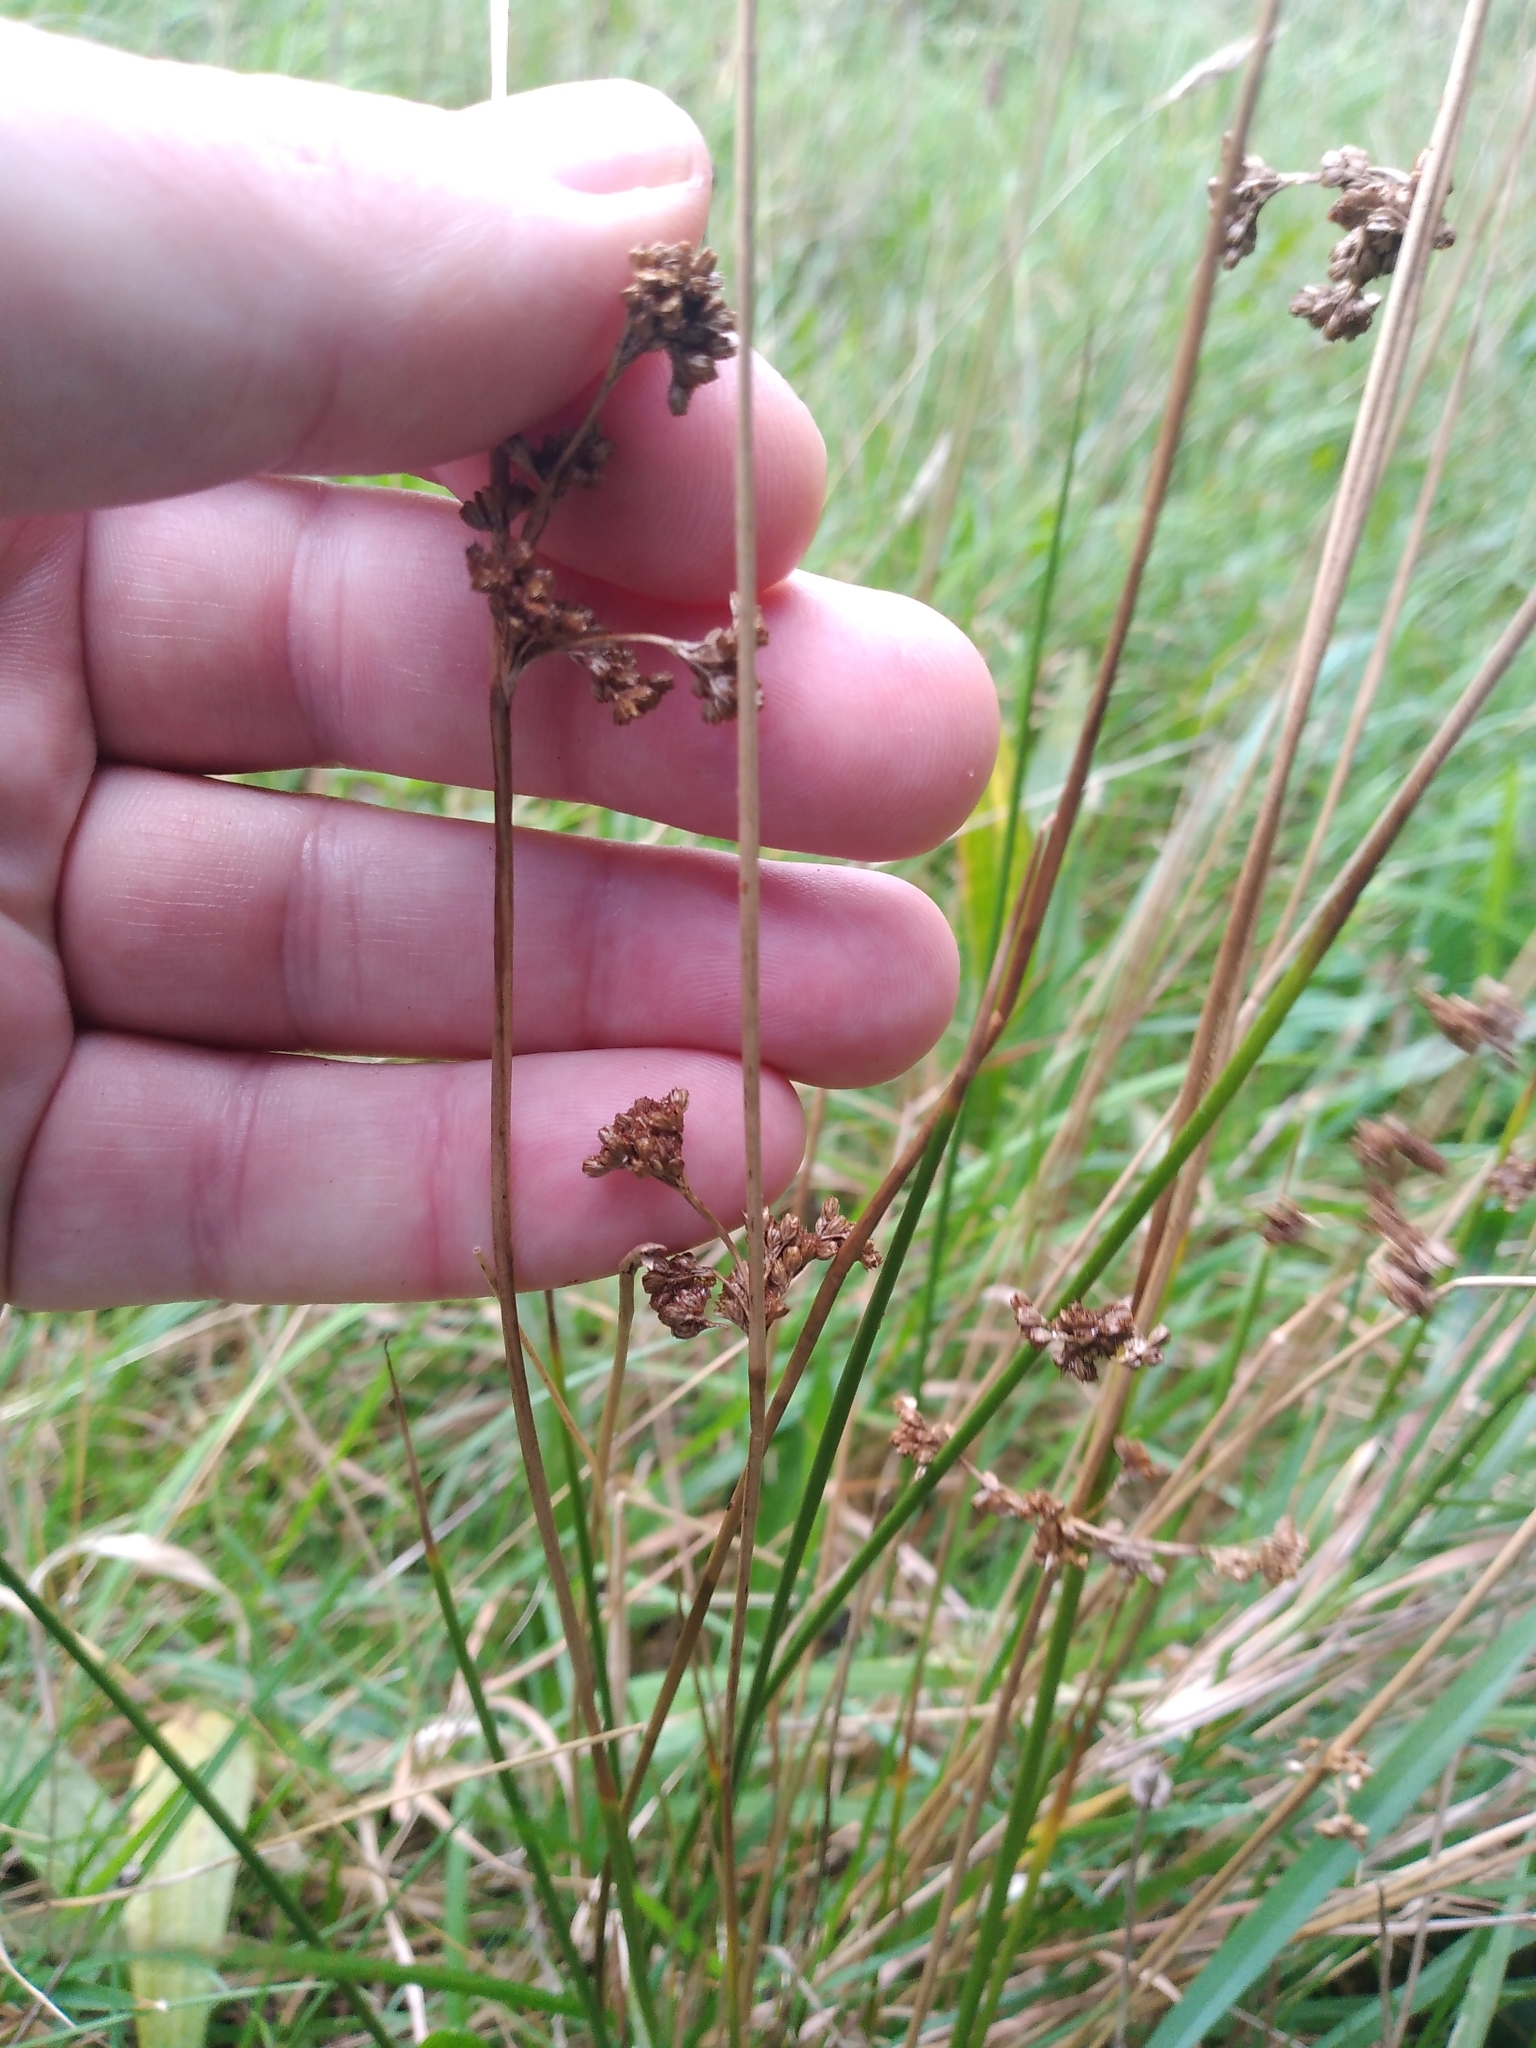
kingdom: Plantae
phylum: Tracheophyta
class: Liliopsida
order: Poales
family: Juncaceae
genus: Juncus
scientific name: Juncus effusus
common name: Soft rush
